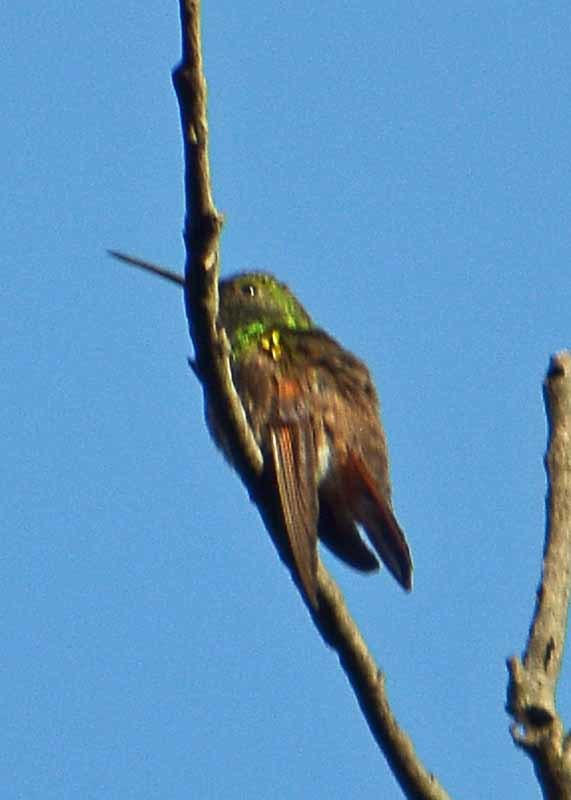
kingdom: Animalia
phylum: Chordata
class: Aves
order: Apodiformes
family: Trochilidae
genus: Saucerottia
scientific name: Saucerottia beryllina
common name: Berylline hummingbird
